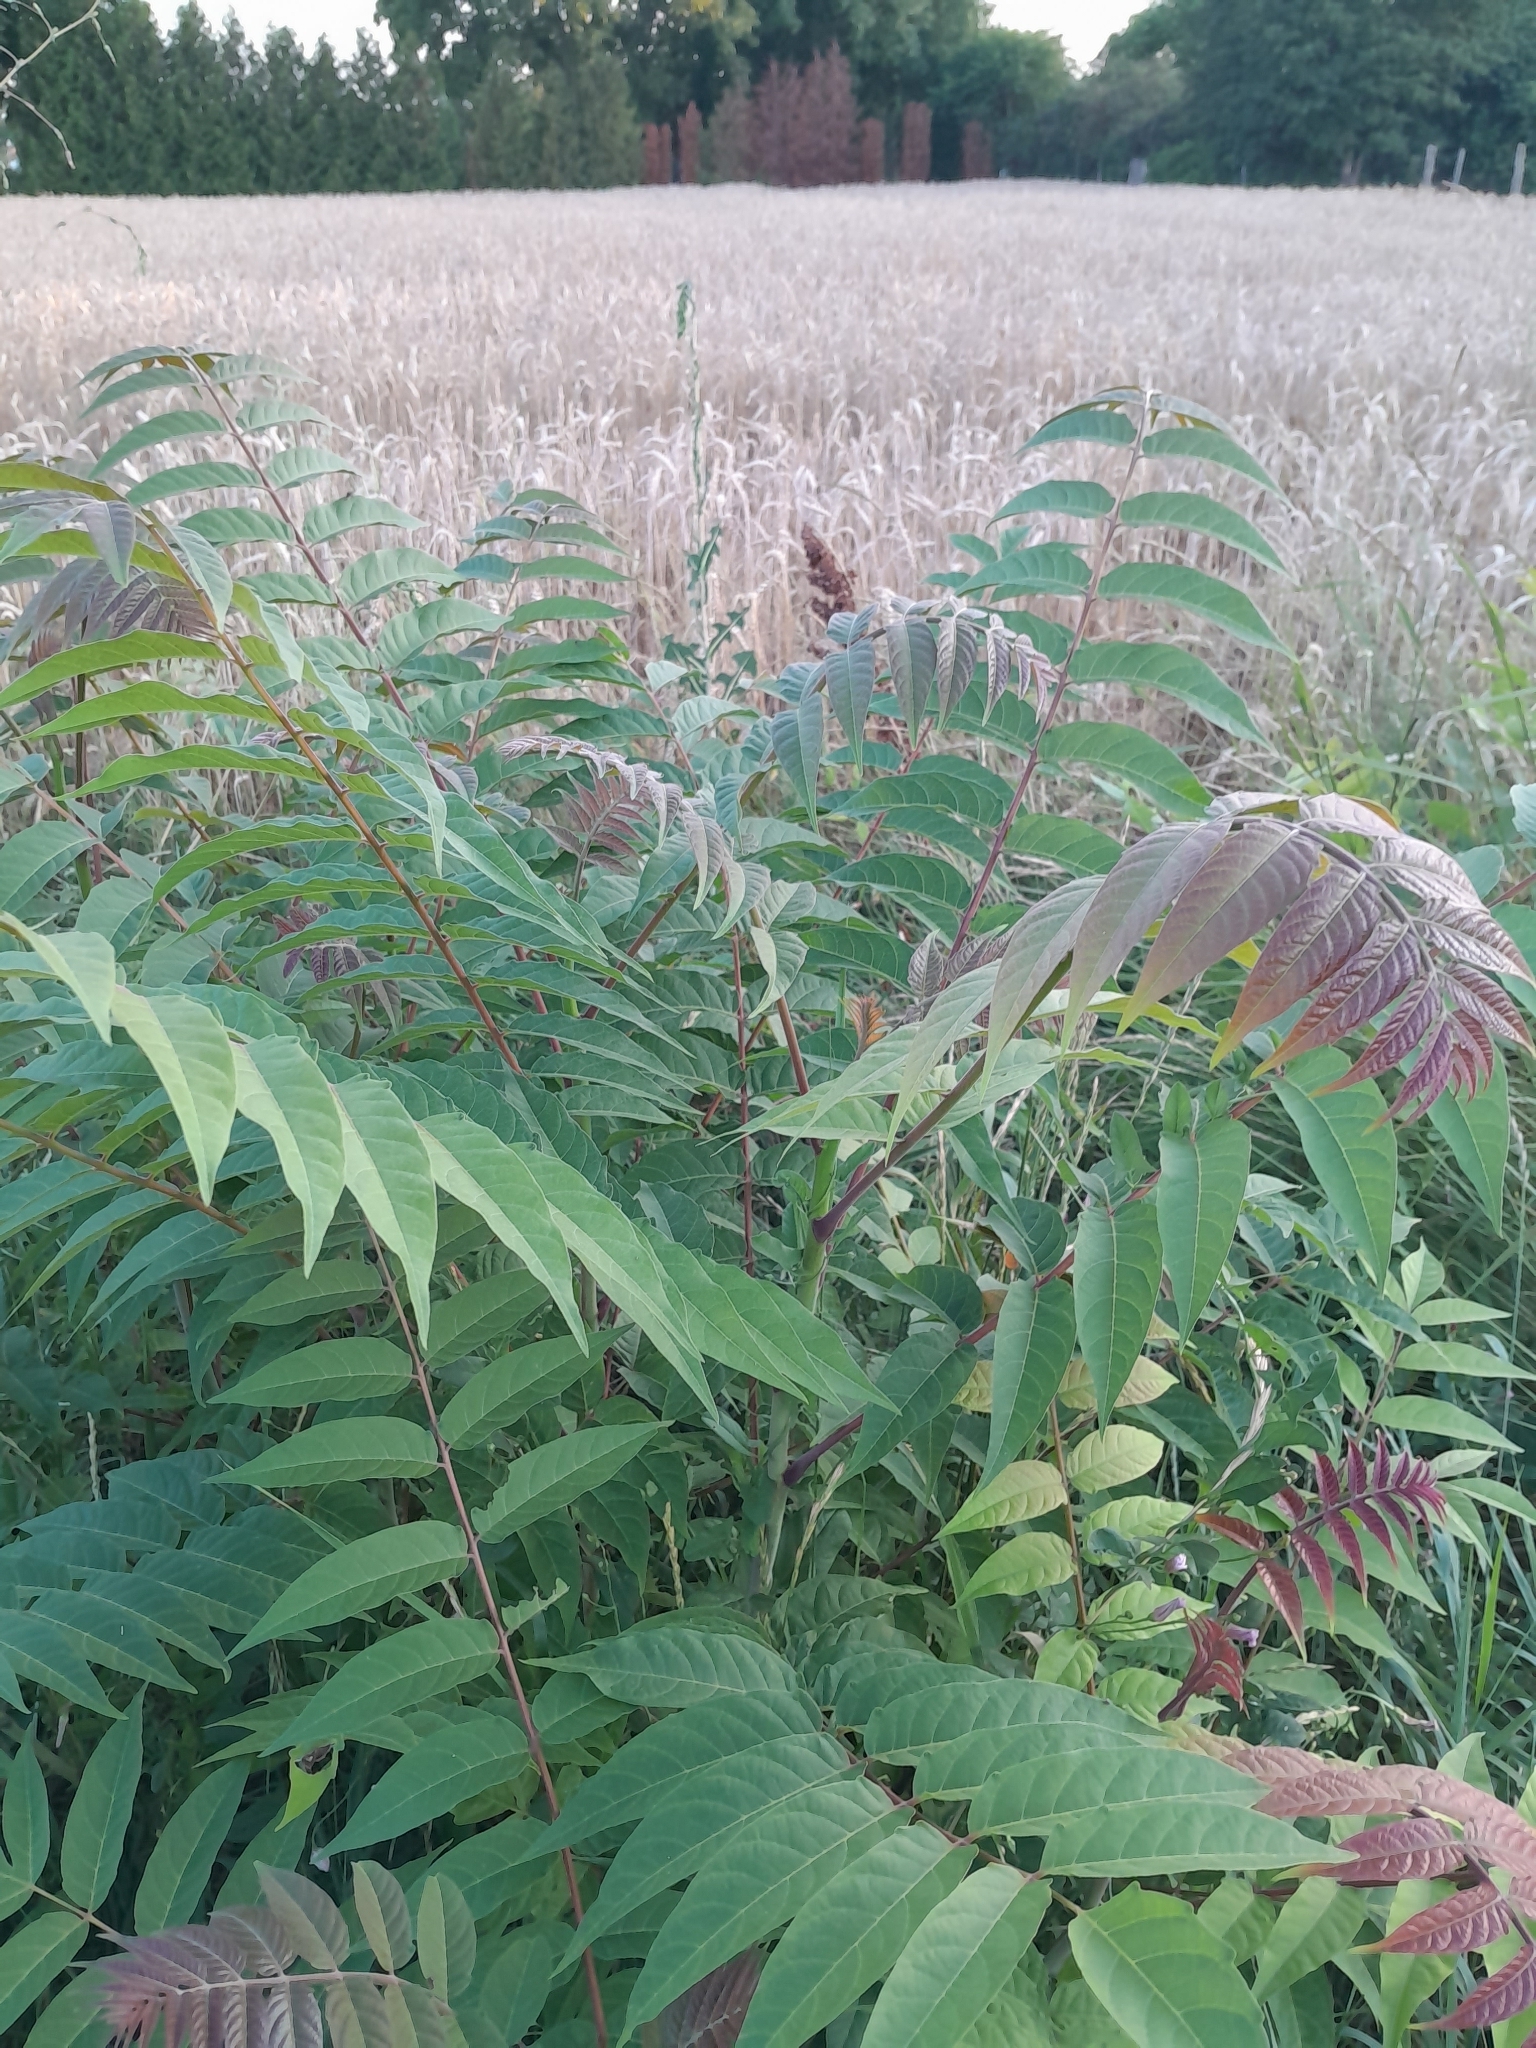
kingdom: Plantae
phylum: Tracheophyta
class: Magnoliopsida
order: Sapindales
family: Simaroubaceae
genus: Ailanthus
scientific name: Ailanthus altissima
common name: Tree-of-heaven
